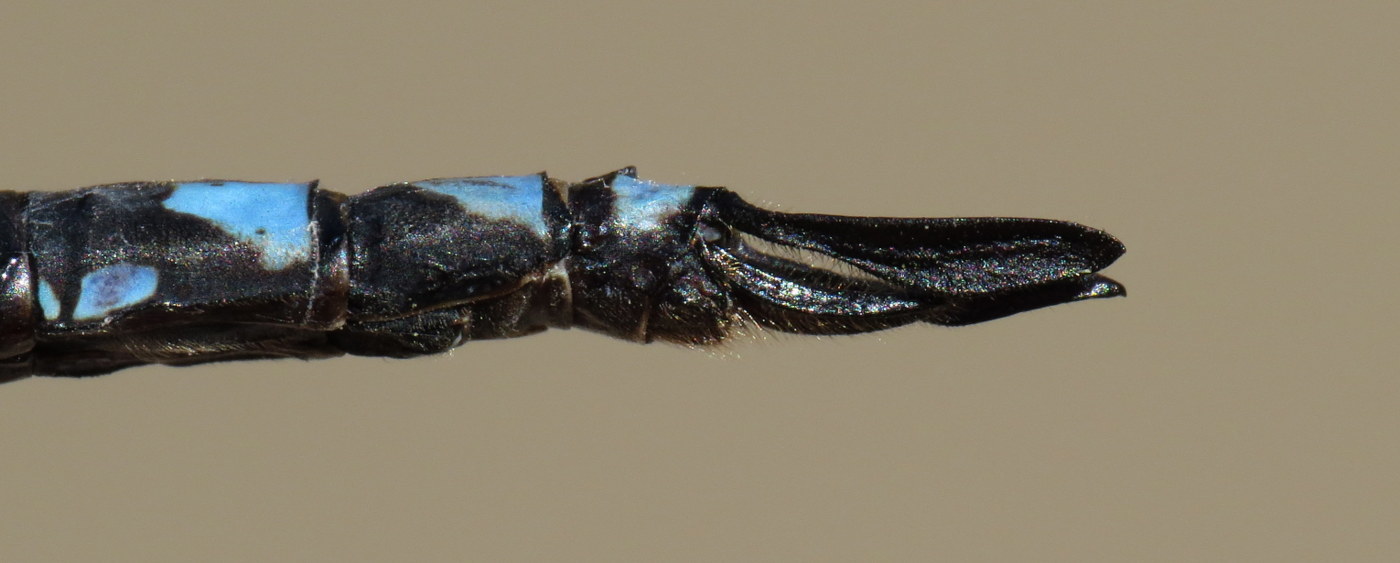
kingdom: Animalia
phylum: Arthropoda
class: Insecta
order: Odonata
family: Aeshnidae
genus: Aeshna
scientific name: Aeshna verticalis
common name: Green-striped darner
